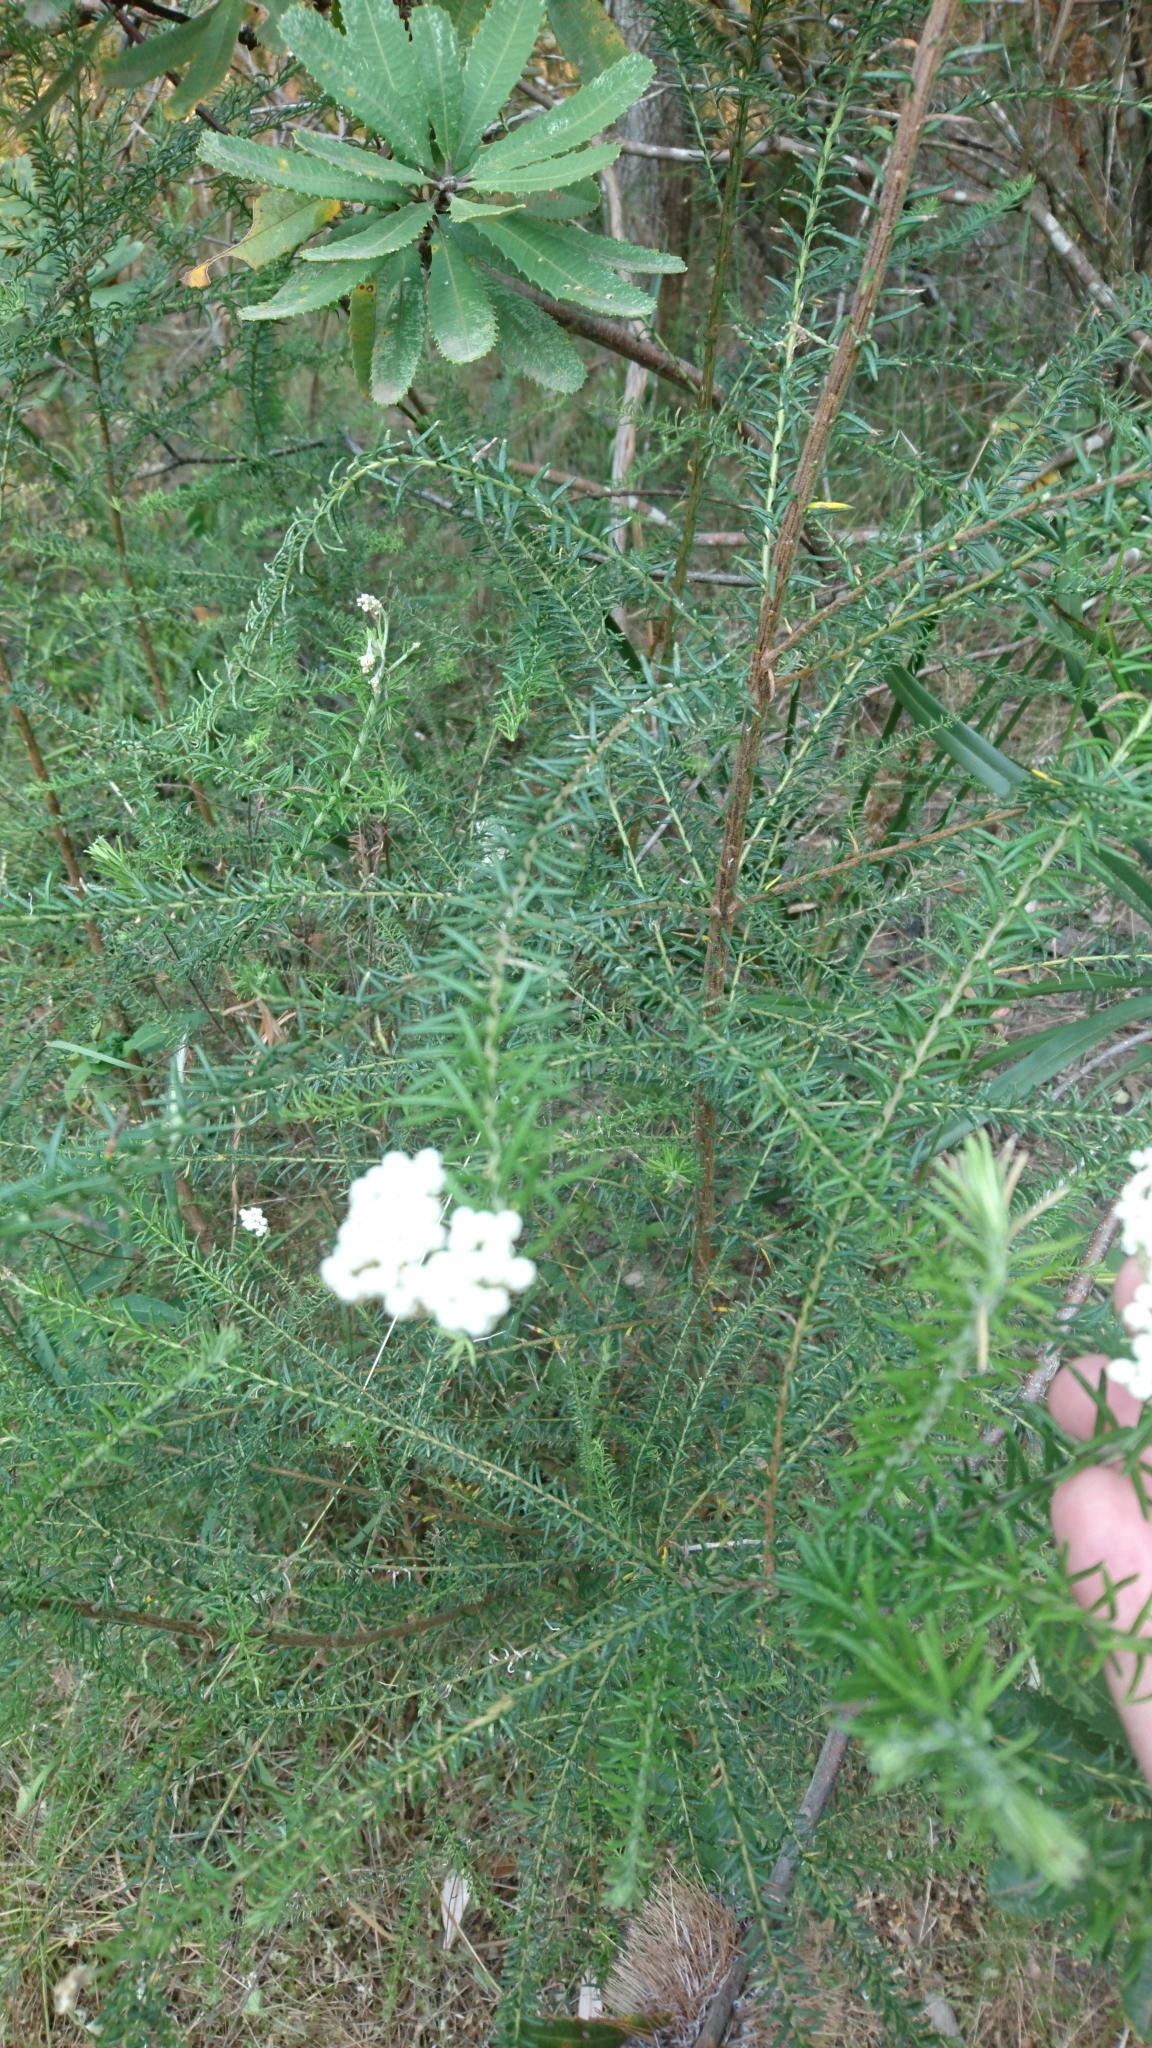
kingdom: Plantae
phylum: Tracheophyta
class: Magnoliopsida
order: Asterales
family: Asteraceae
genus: Ozothamnus
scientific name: Ozothamnus diosmifolius
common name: White-dogwood
